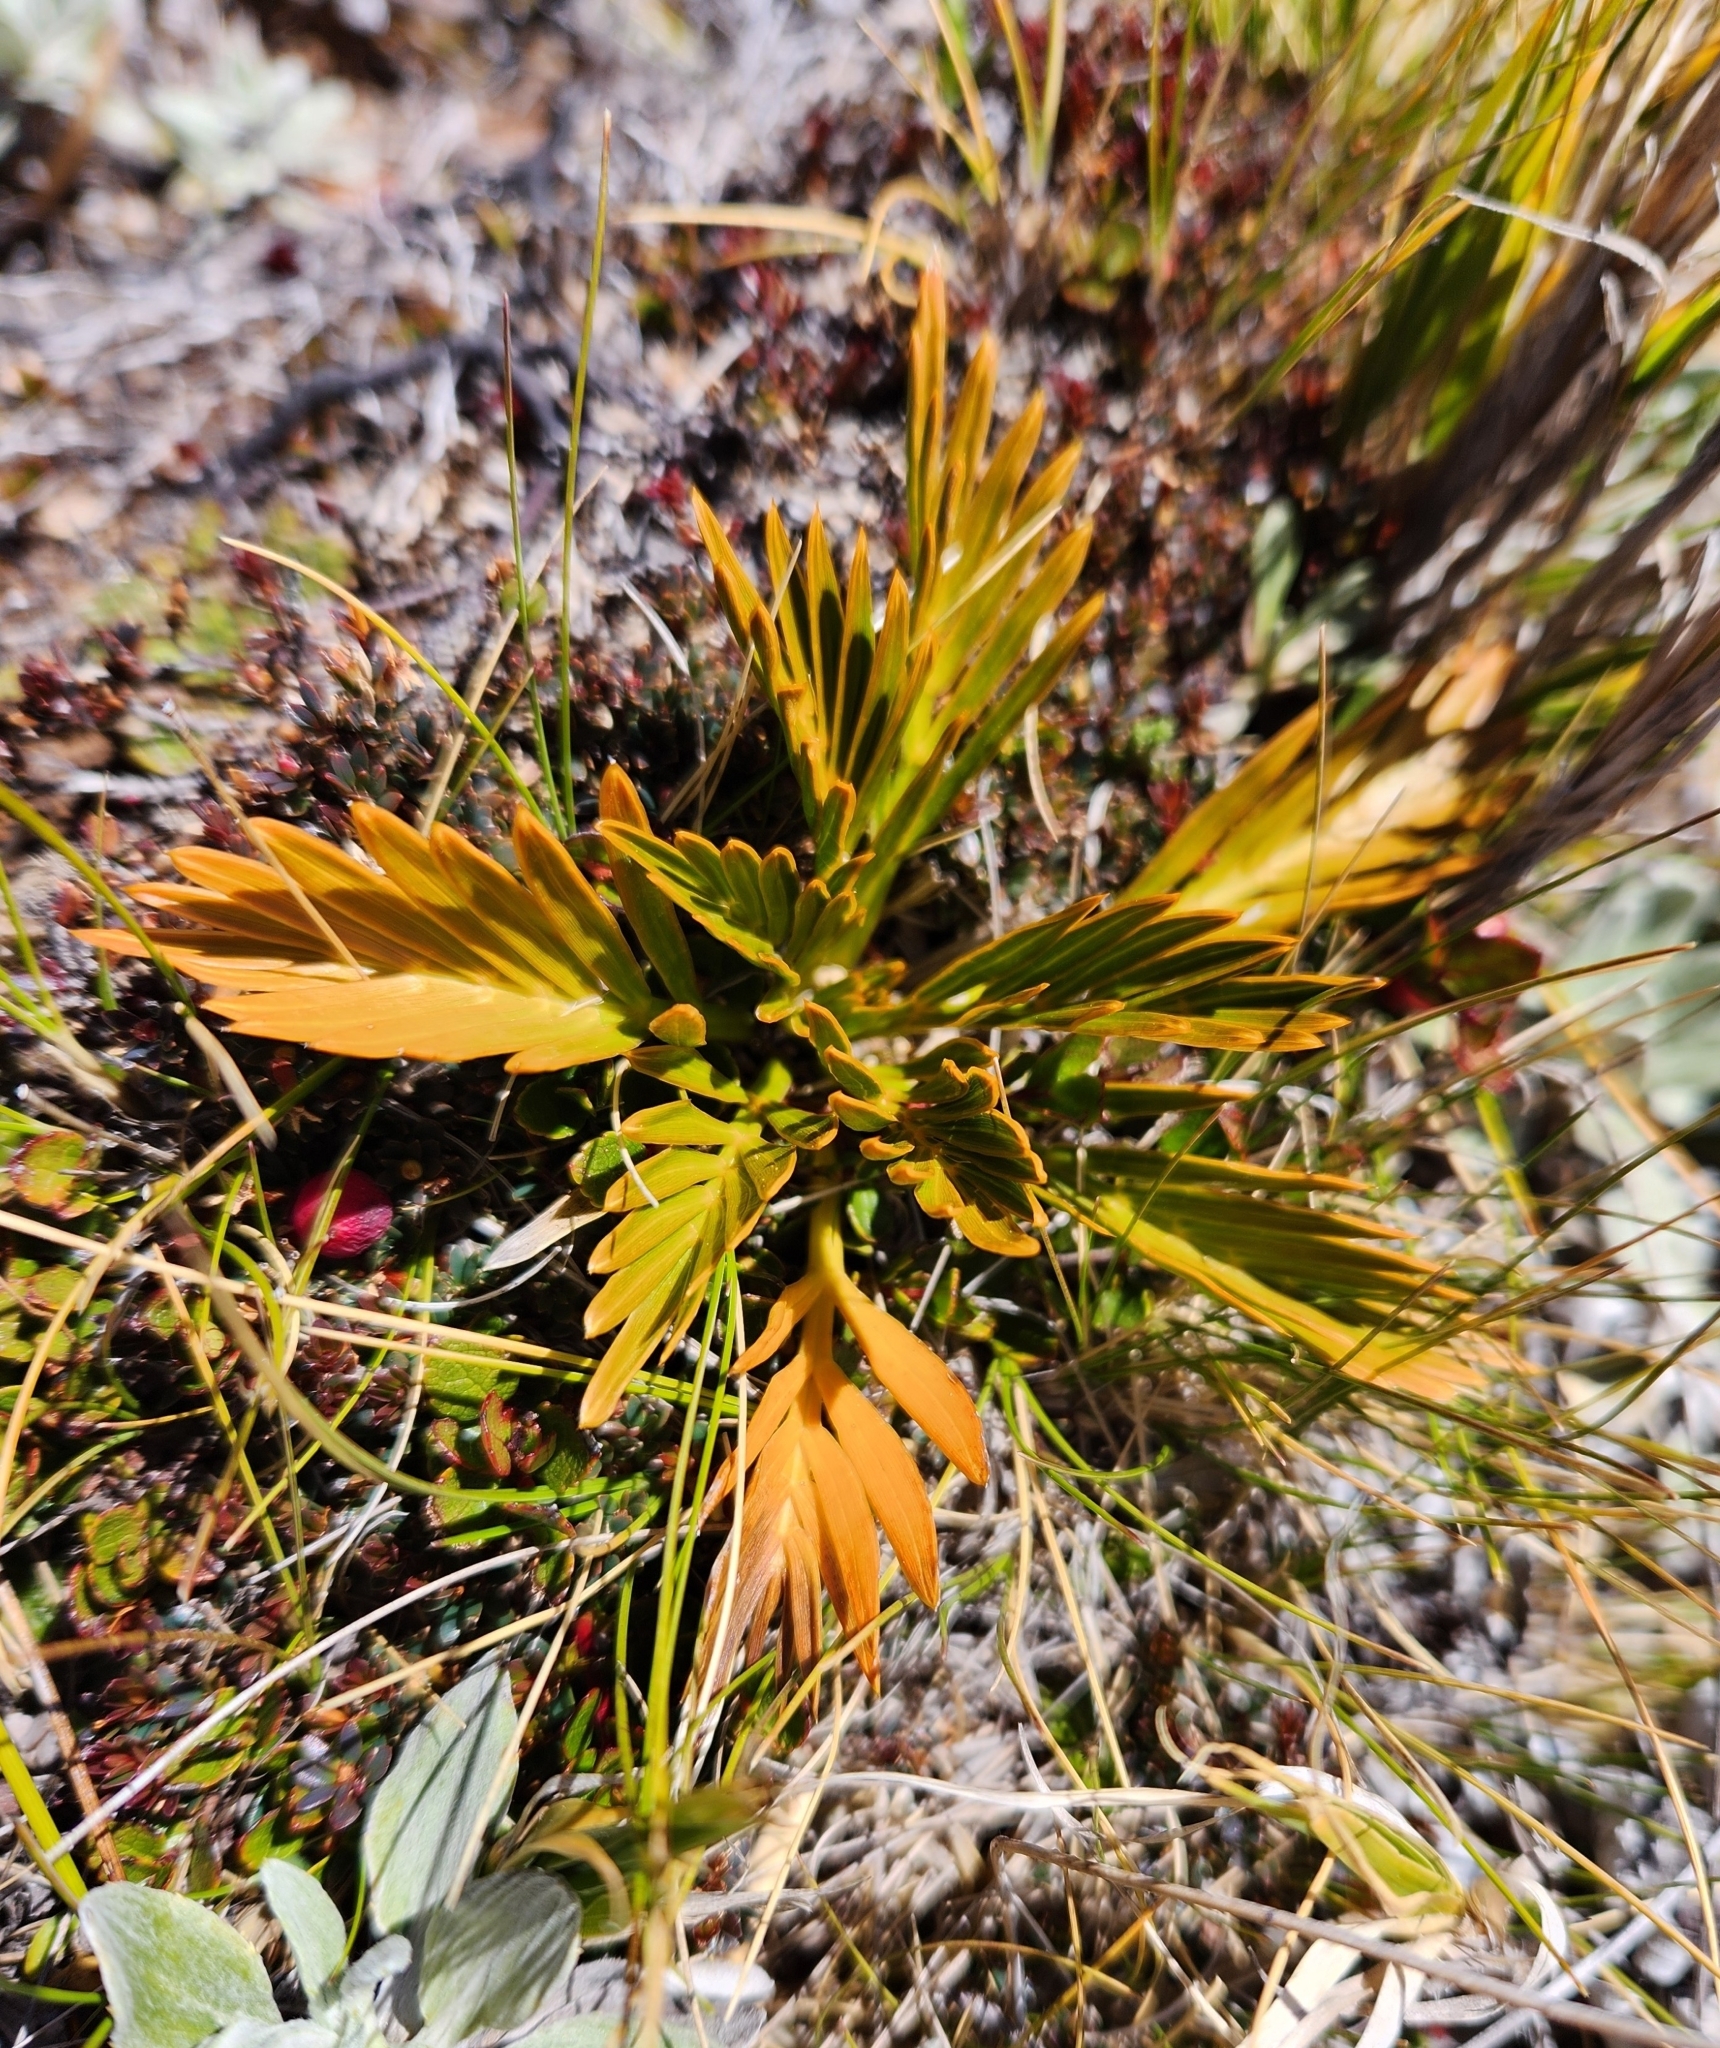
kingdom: Plantae
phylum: Tracheophyta
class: Magnoliopsida
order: Apiales
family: Apiaceae
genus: Aciphylla
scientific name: Aciphylla similis
